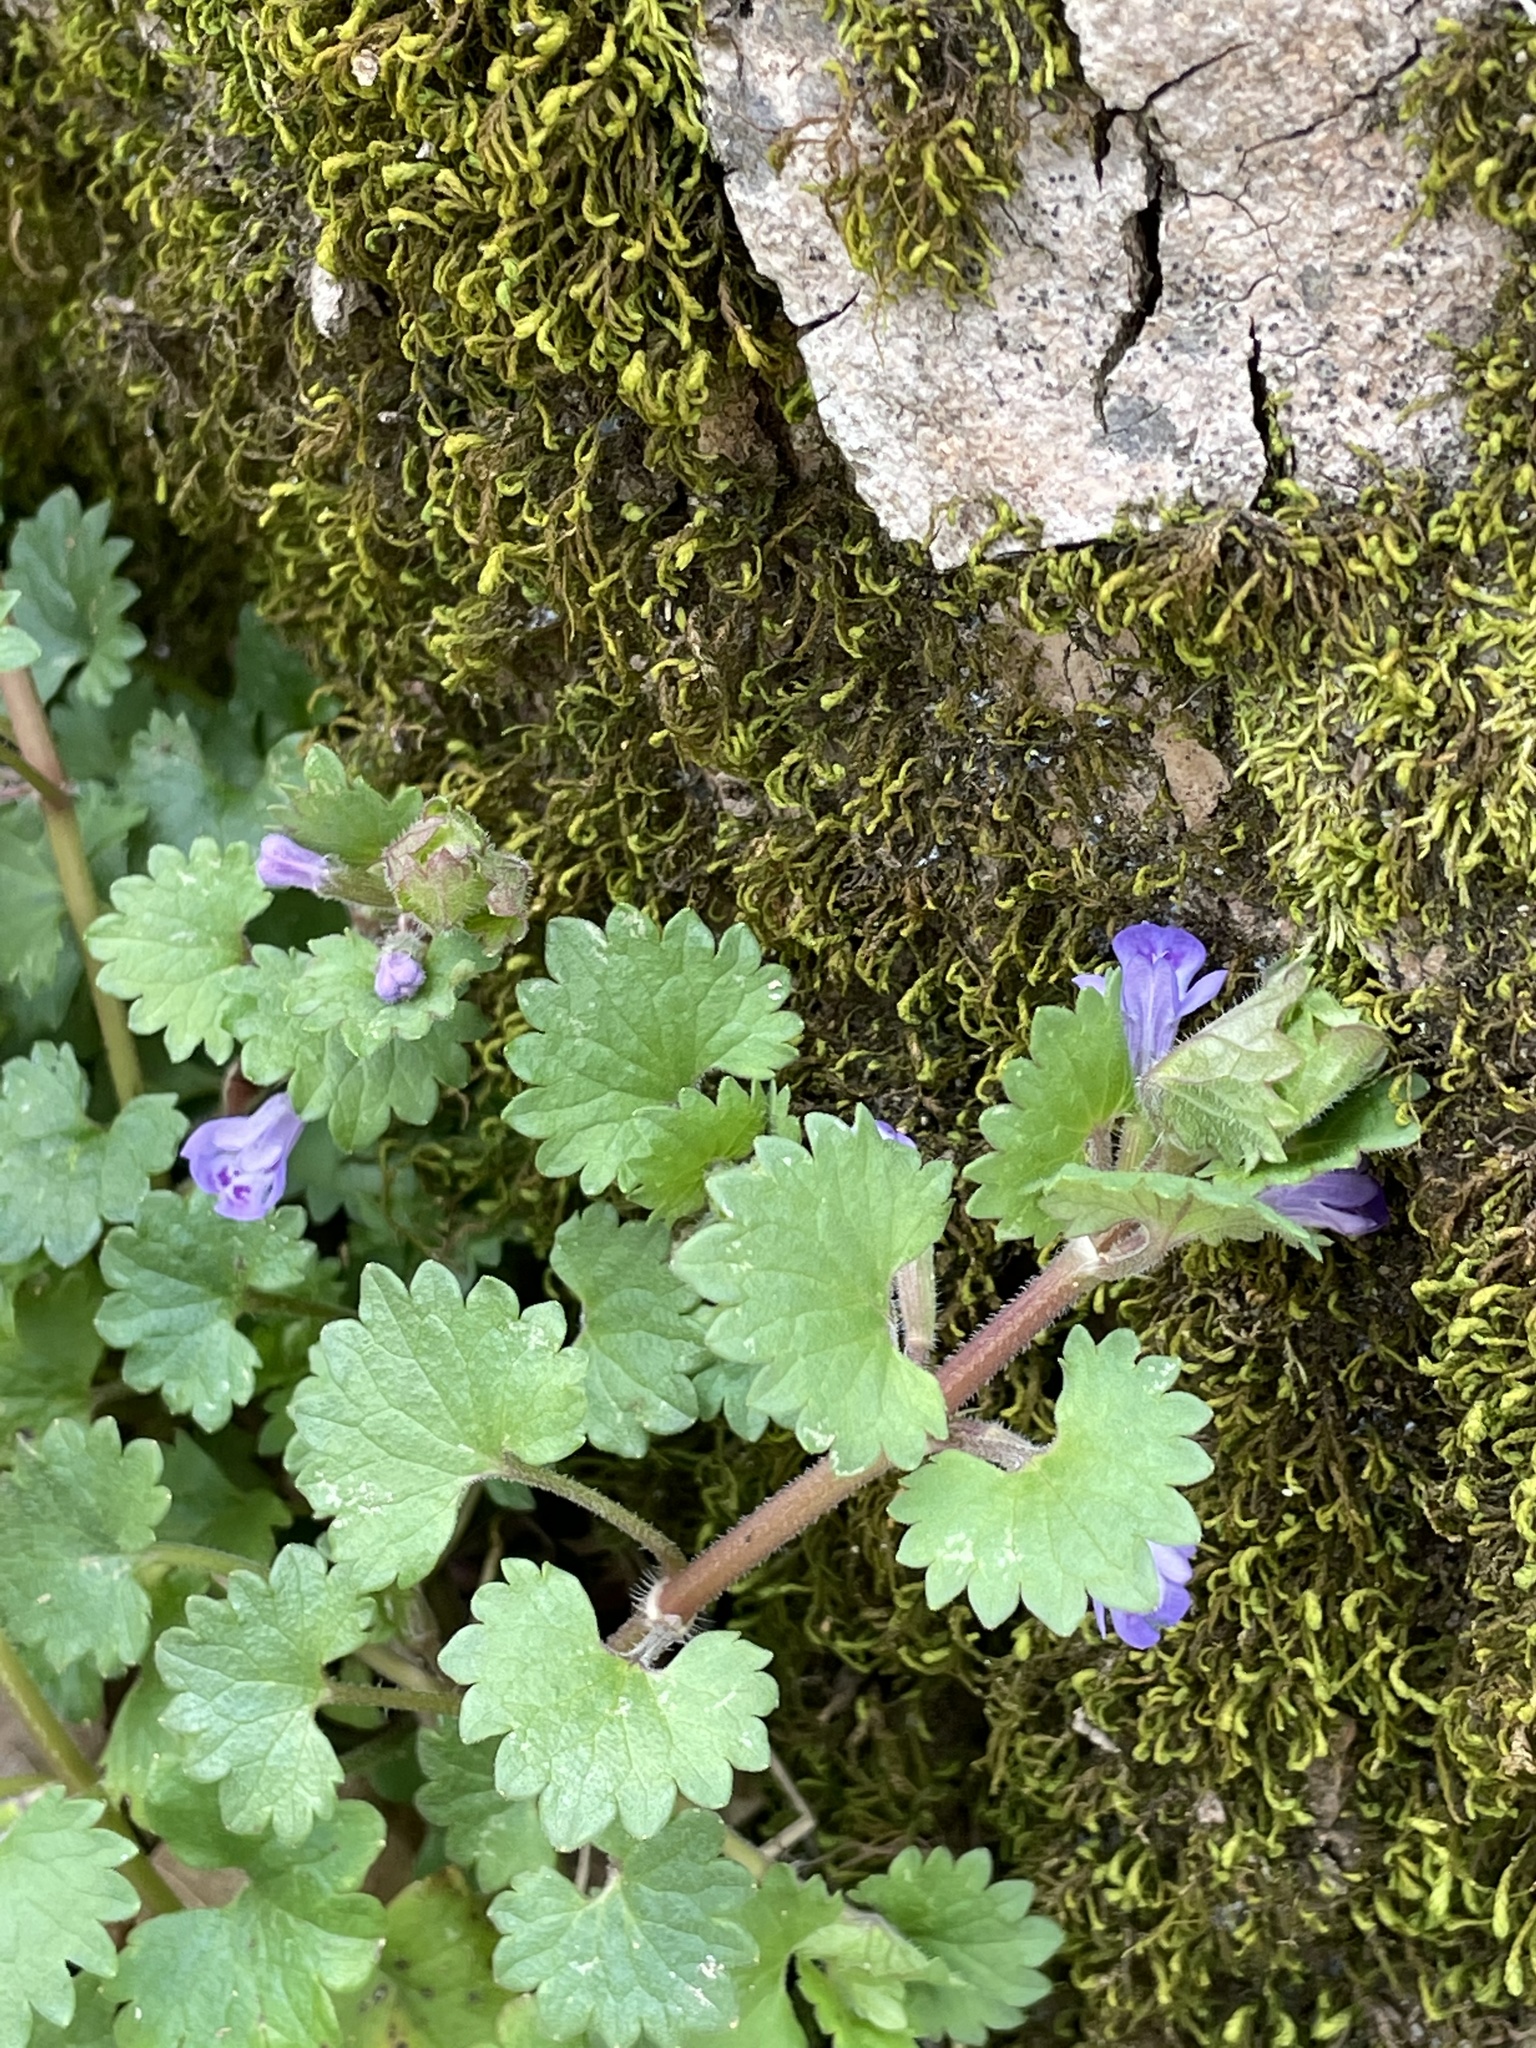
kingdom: Plantae
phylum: Tracheophyta
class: Magnoliopsida
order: Lamiales
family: Lamiaceae
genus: Glechoma
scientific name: Glechoma hederacea
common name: Ground ivy
